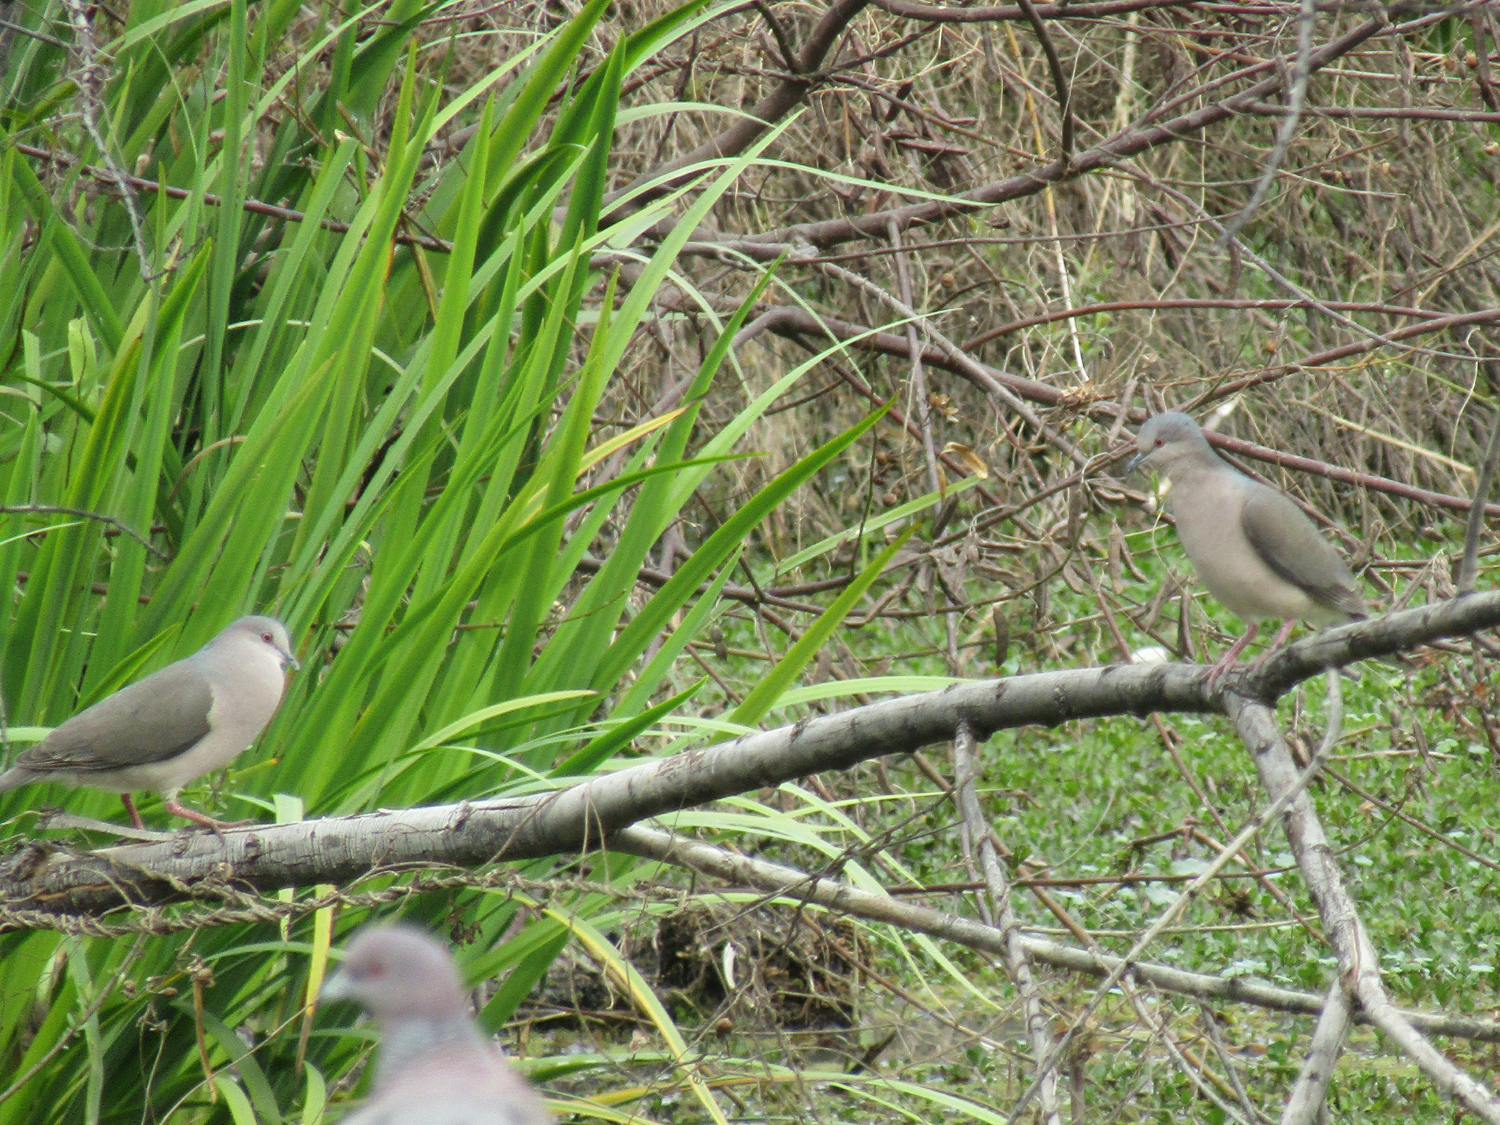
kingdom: Animalia
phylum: Chordata
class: Aves
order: Columbiformes
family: Columbidae
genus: Leptotila
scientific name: Leptotila verreauxi
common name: White-tipped dove
